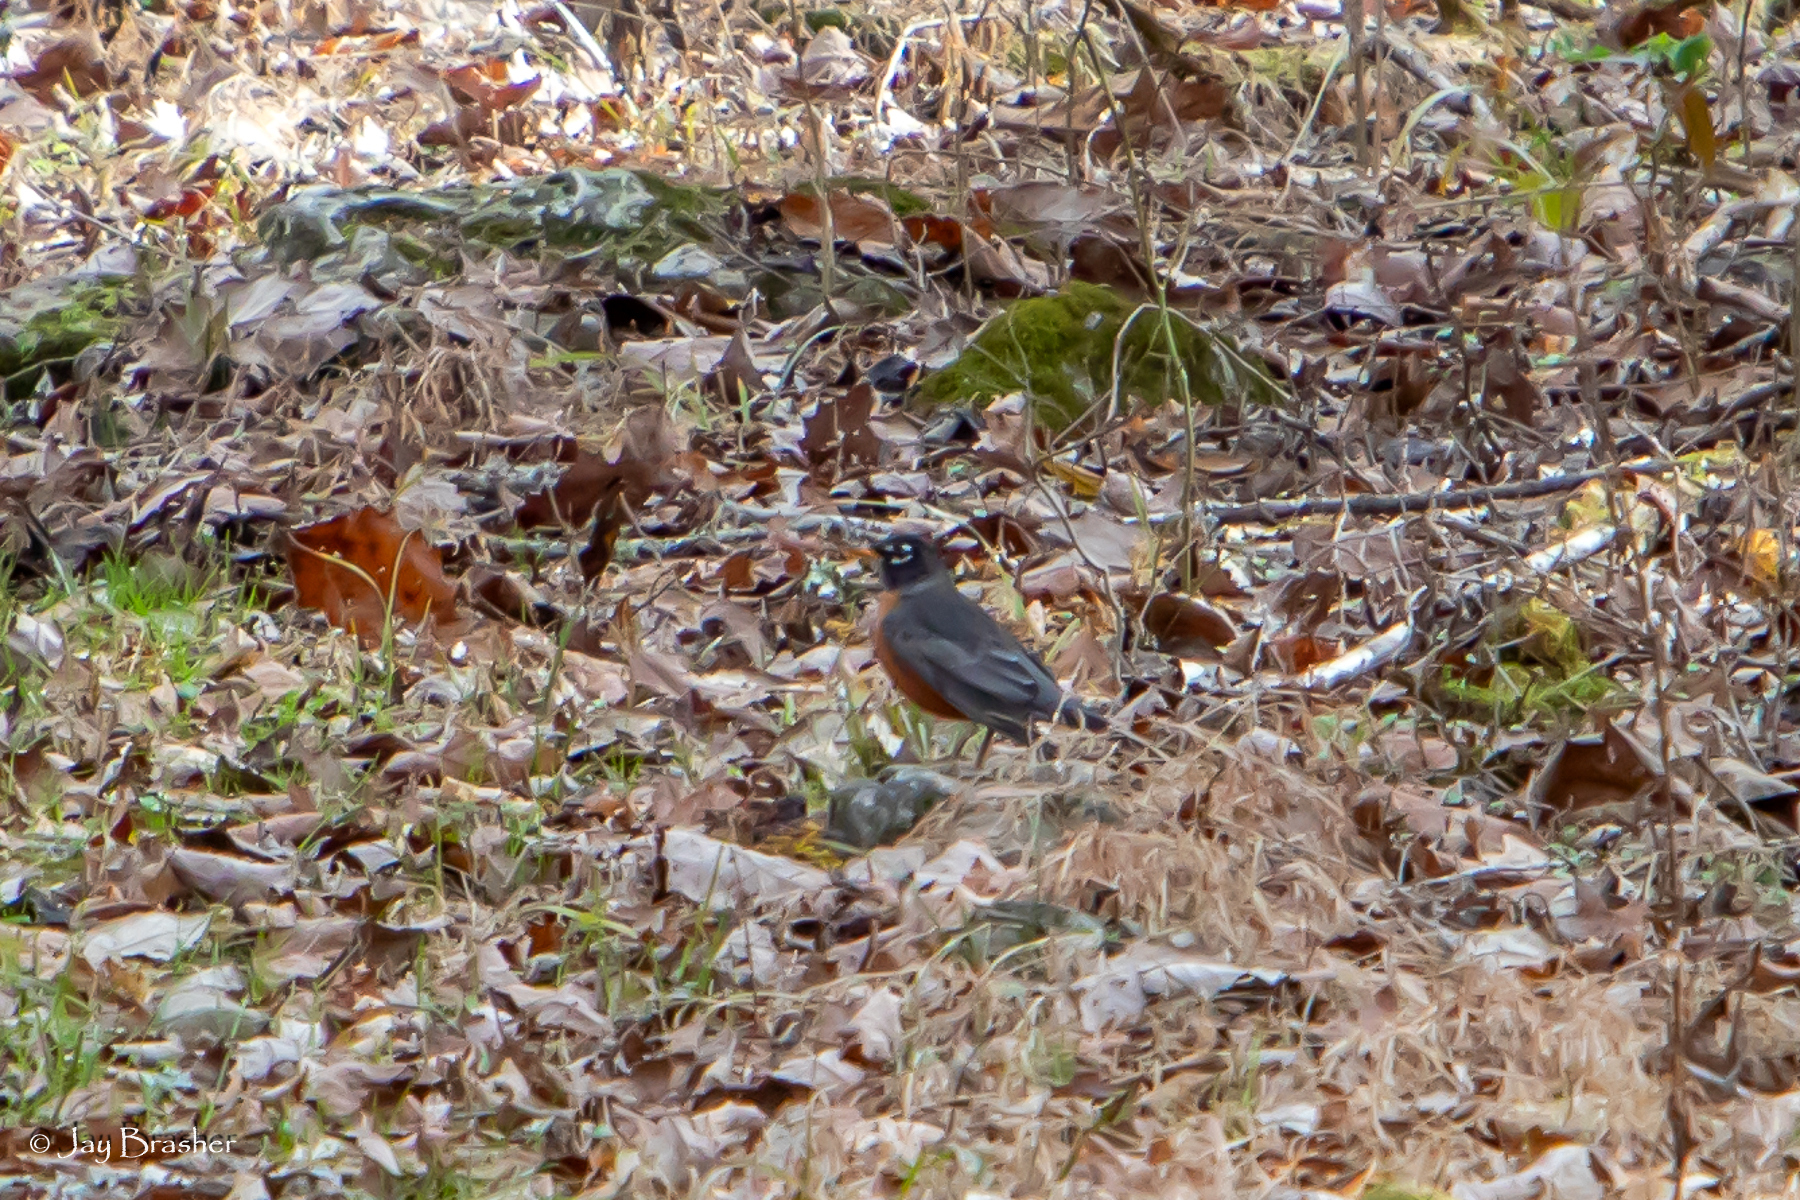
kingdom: Animalia
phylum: Chordata
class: Aves
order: Passeriformes
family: Turdidae
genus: Turdus
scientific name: Turdus migratorius
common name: American robin
